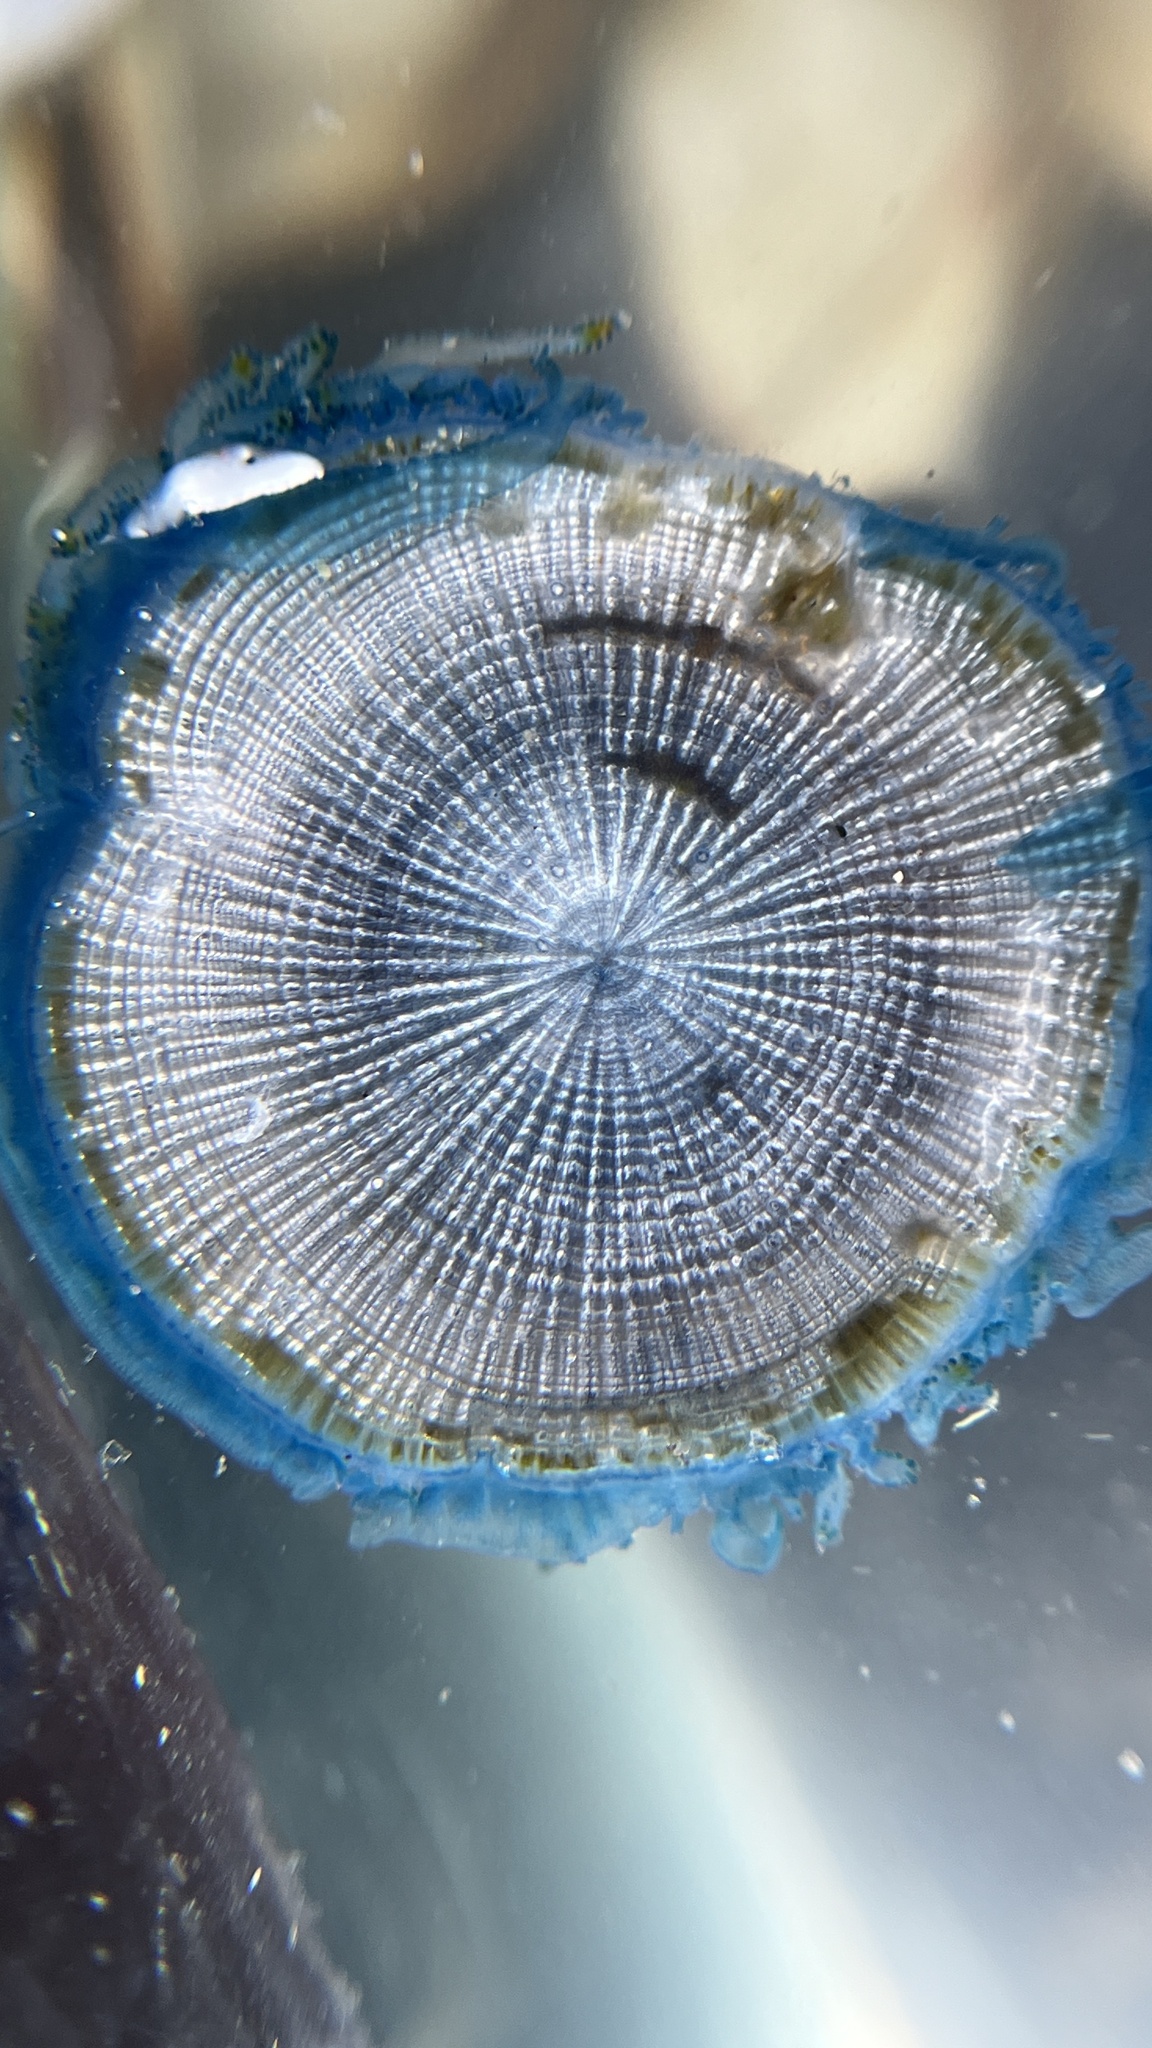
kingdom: Animalia
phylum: Cnidaria
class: Hydrozoa
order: Anthoathecata
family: Porpitidae
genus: Porpita
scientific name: Porpita porpita
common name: Blue button
